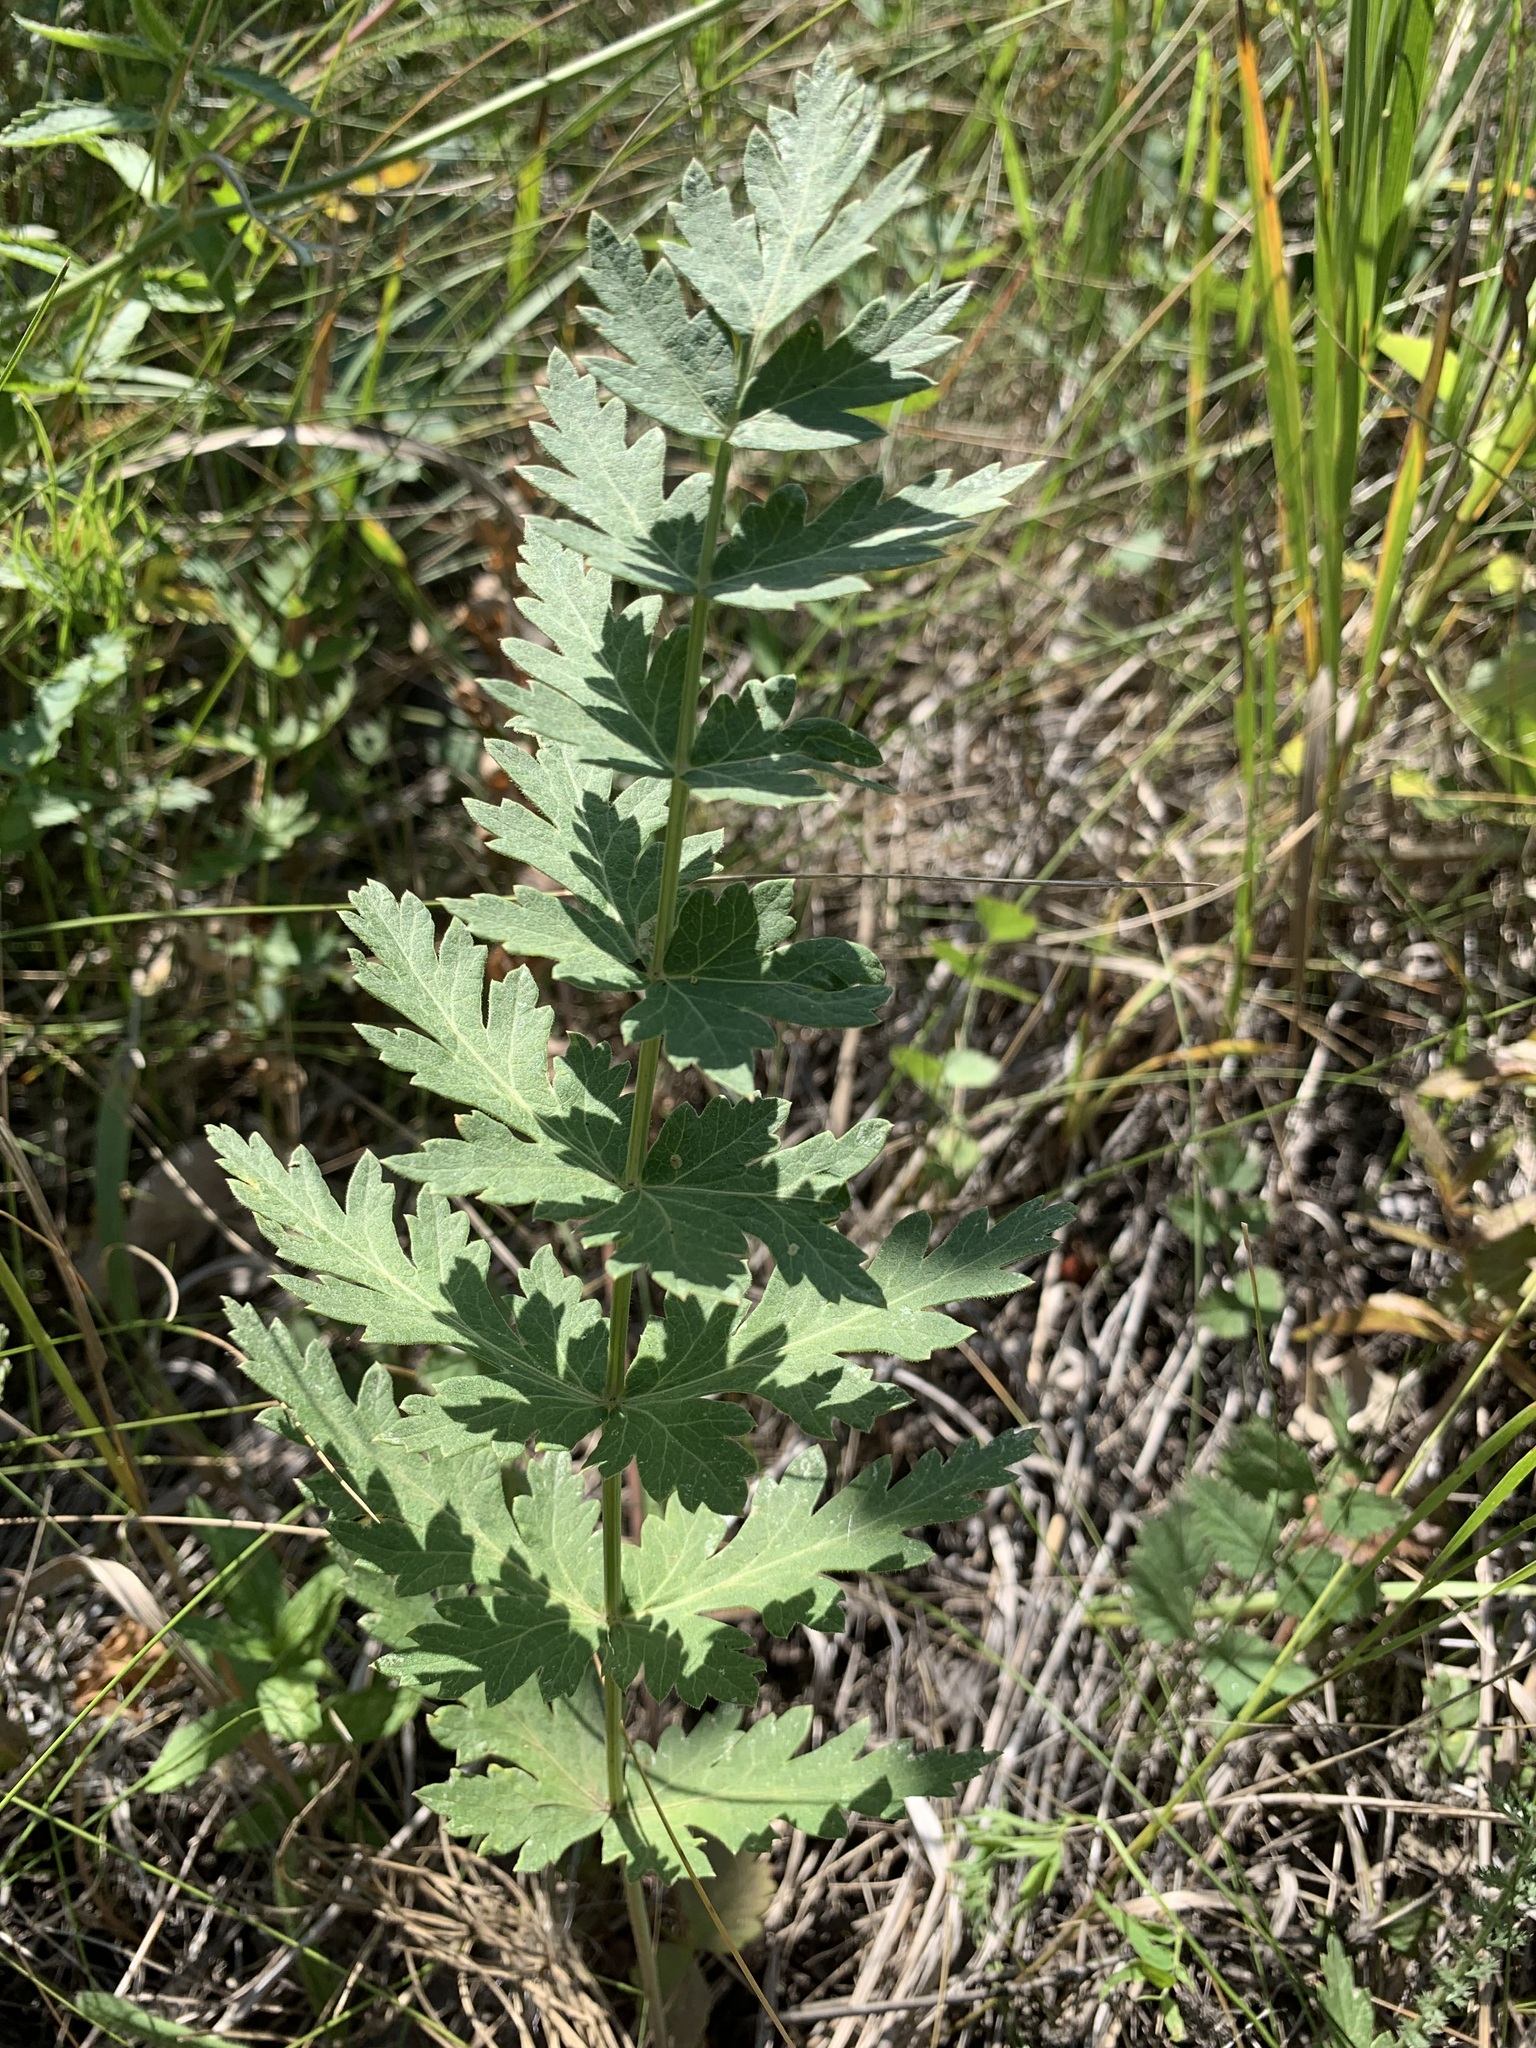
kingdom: Plantae
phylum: Tracheophyta
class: Magnoliopsida
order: Apiales
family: Apiaceae
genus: Seseli
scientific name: Seseli libanotis
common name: Mooncarrot
